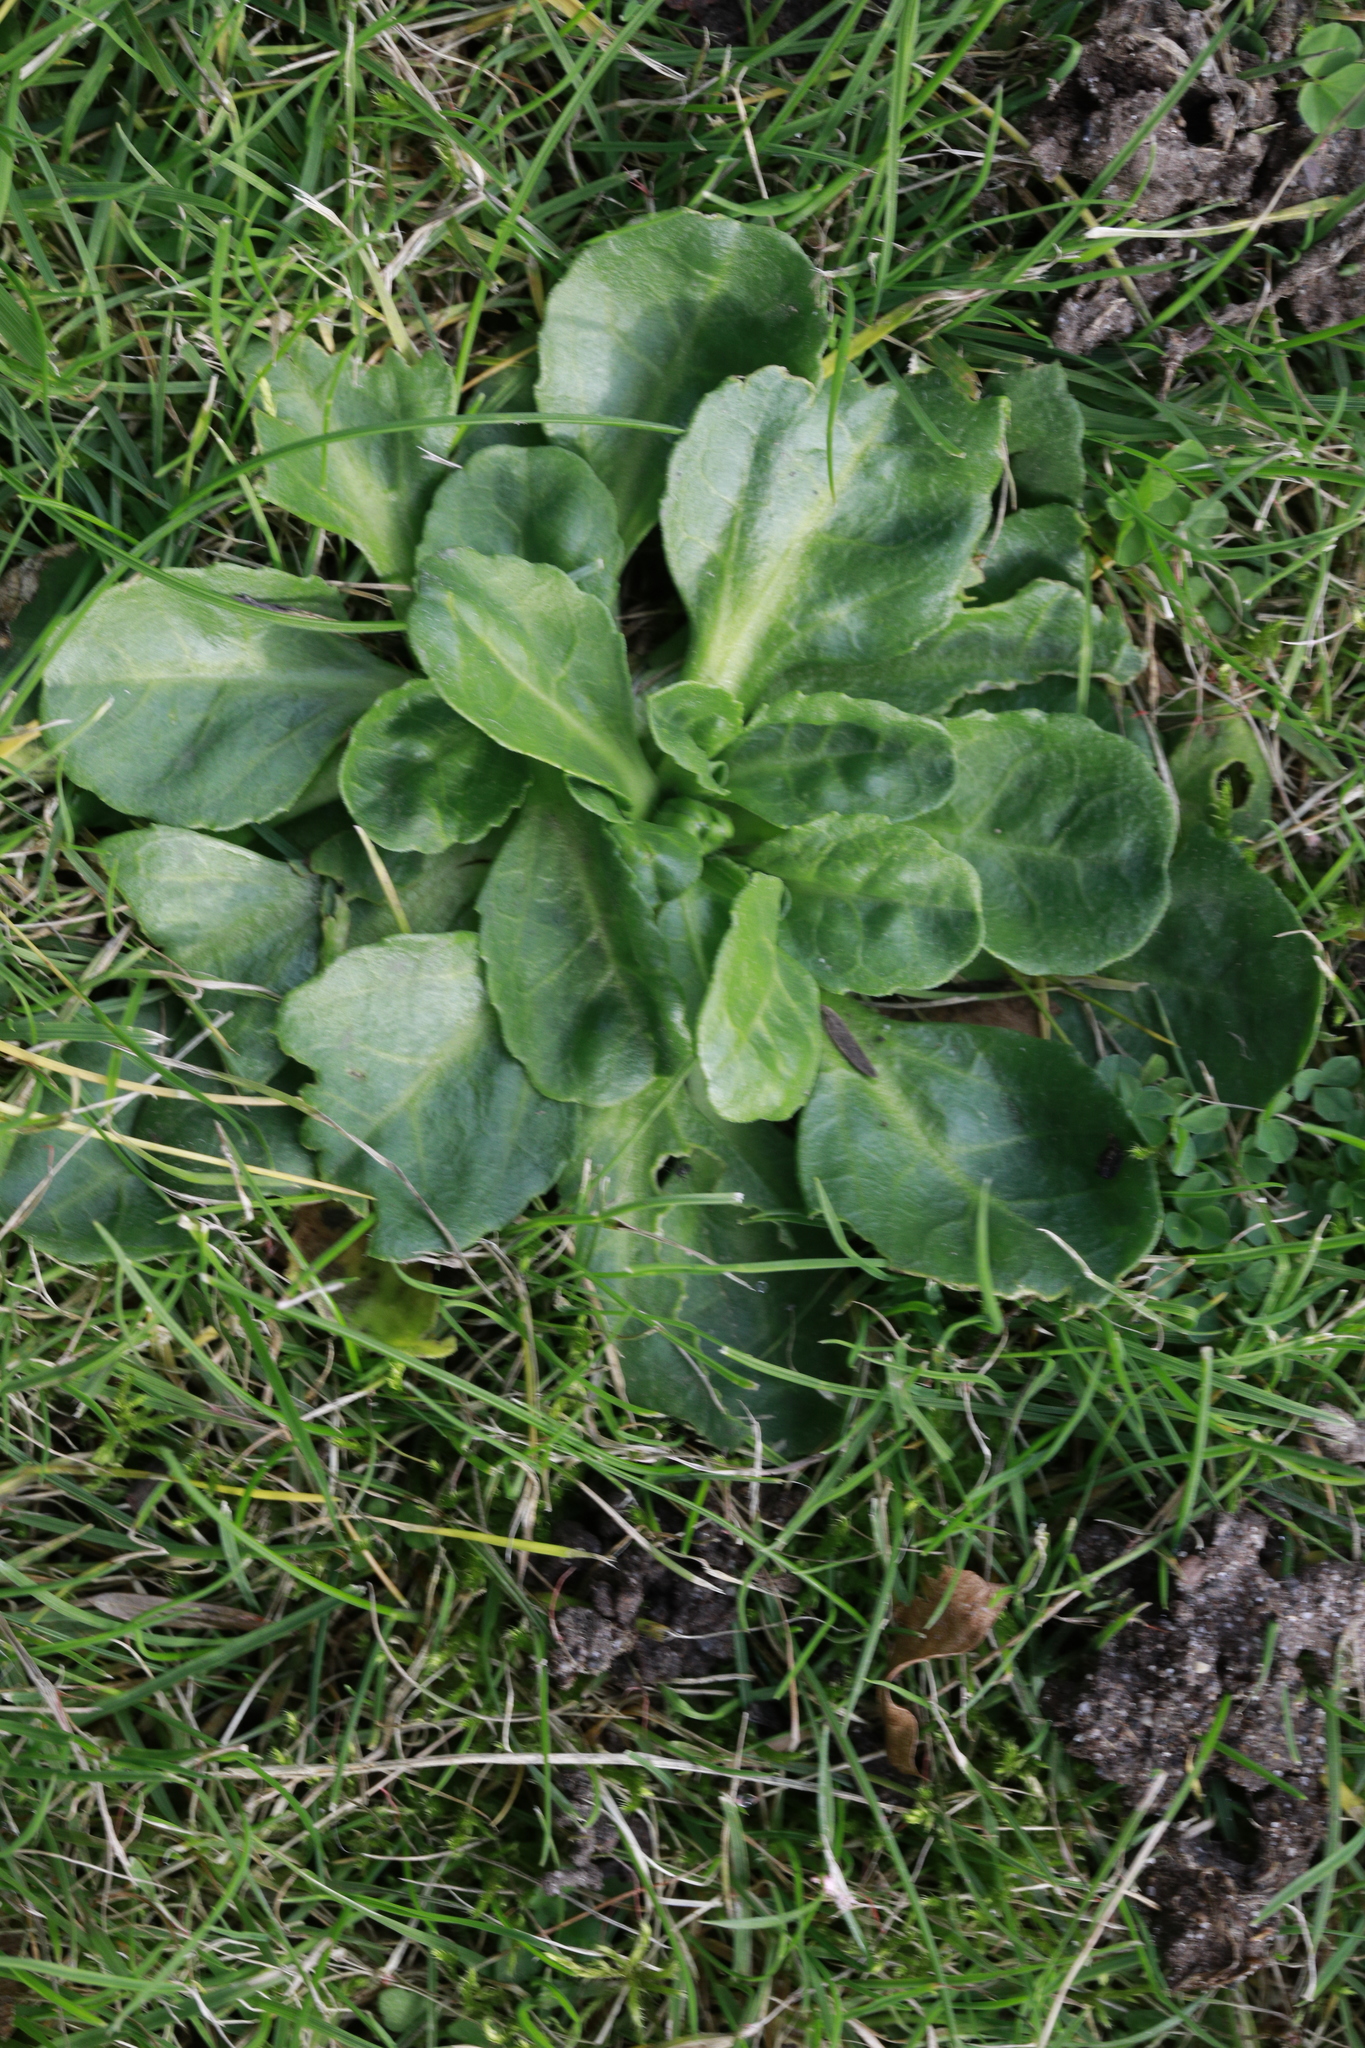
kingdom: Plantae
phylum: Tracheophyta
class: Magnoliopsida
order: Asterales
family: Asteraceae
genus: Bellis
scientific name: Bellis perennis
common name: Lawndaisy
